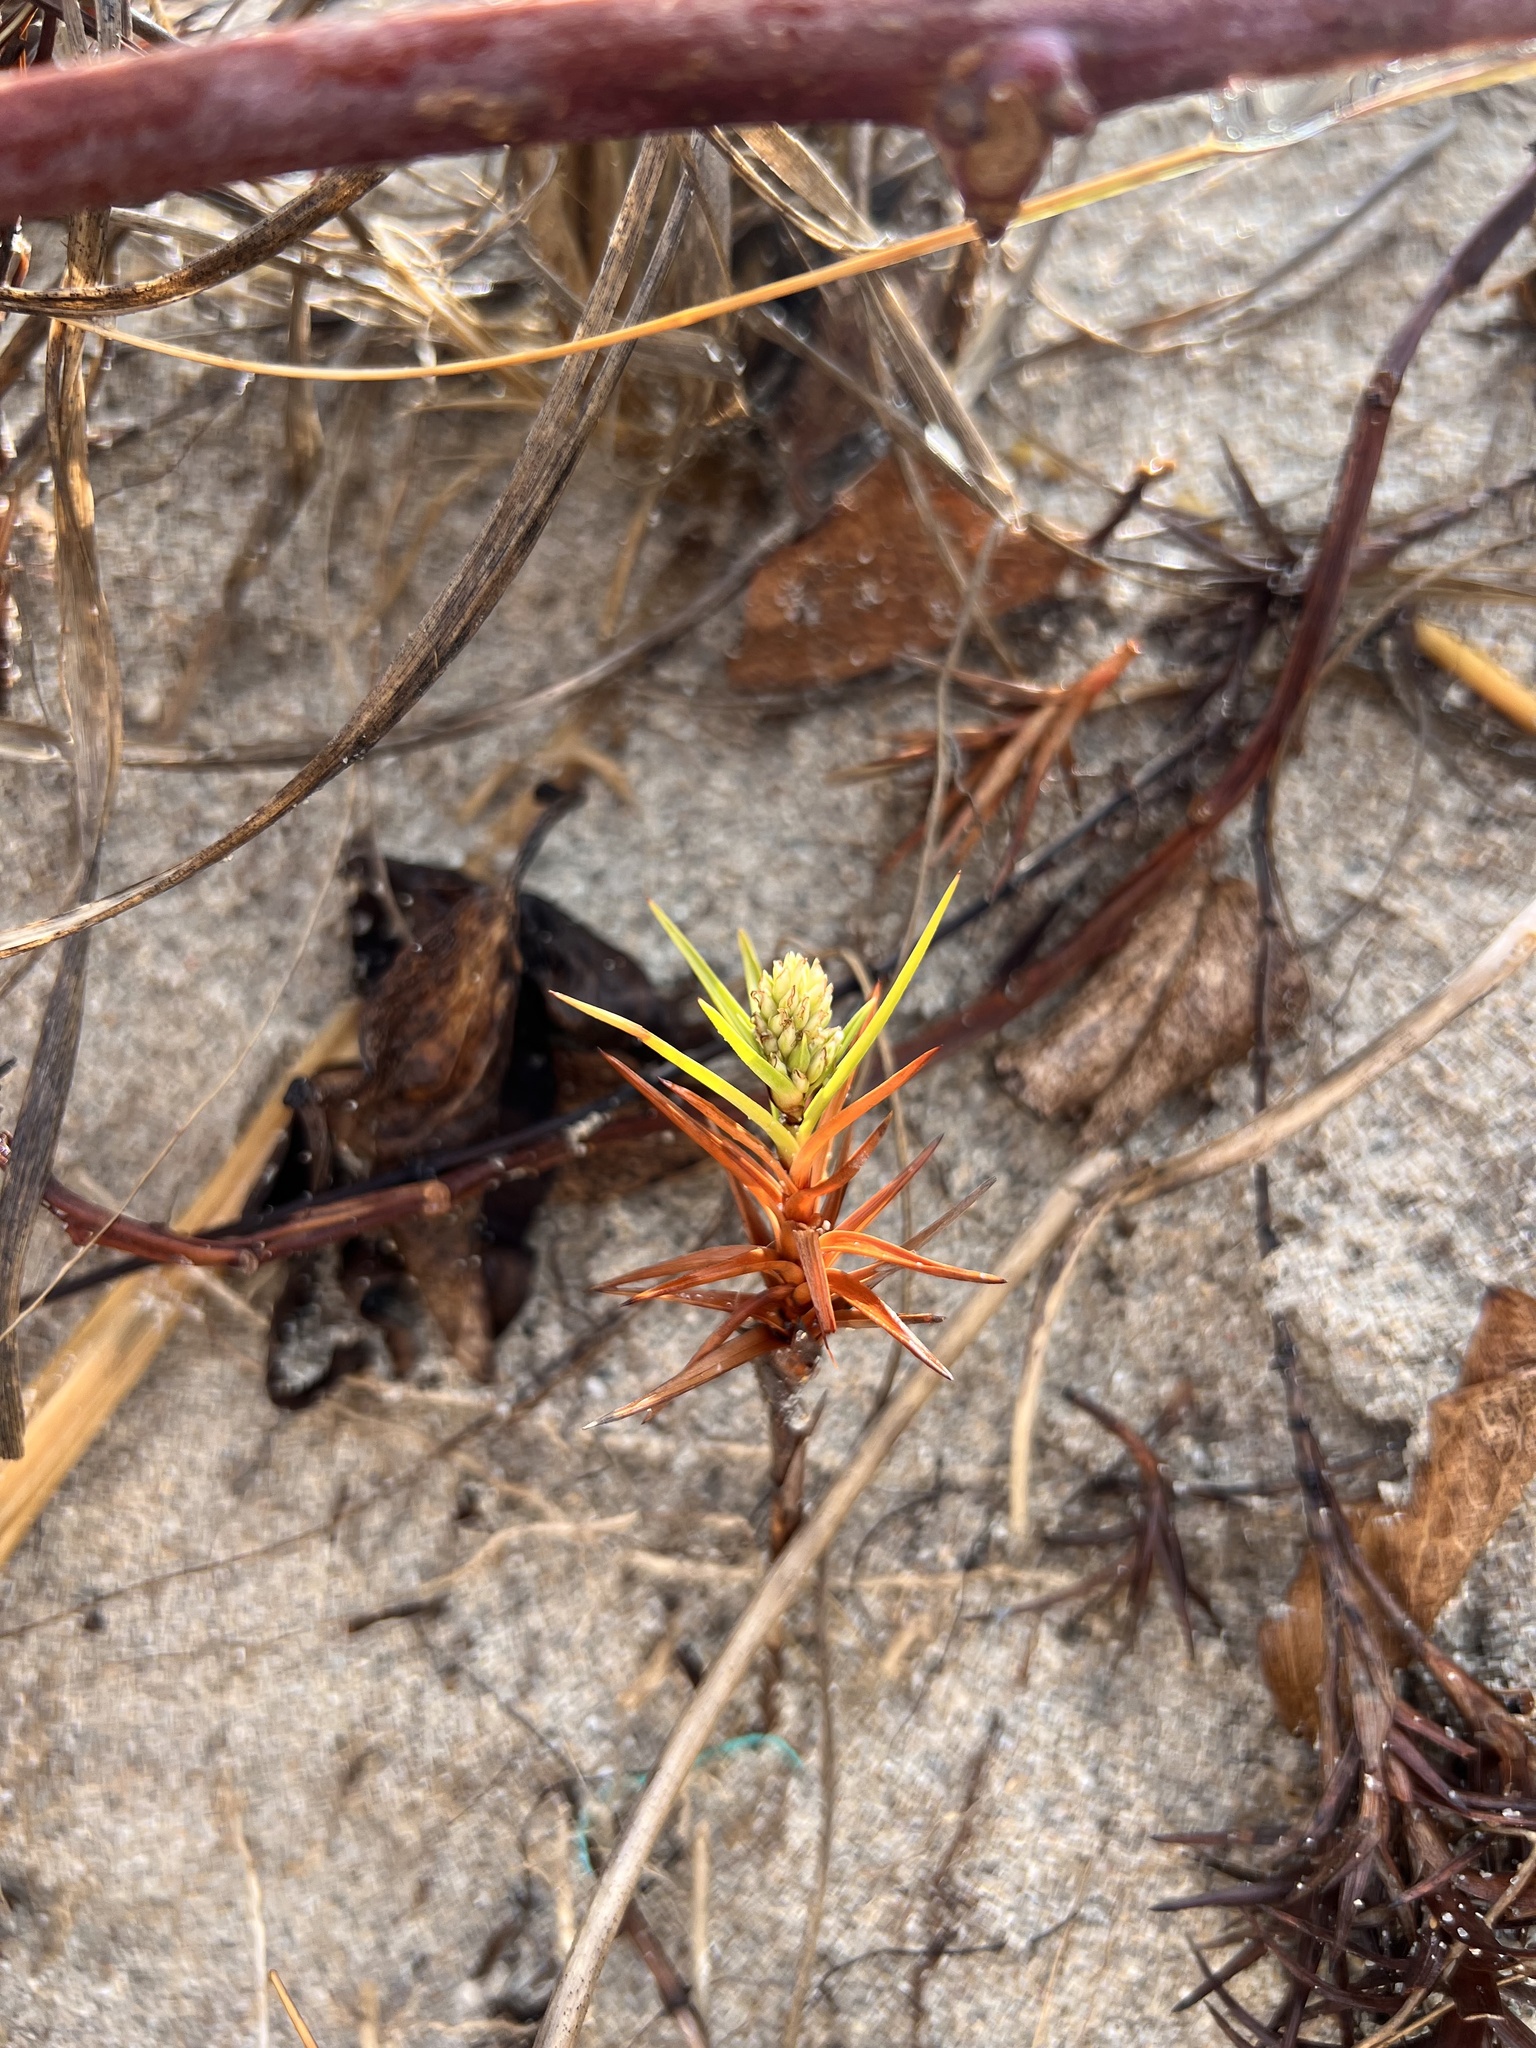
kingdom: Plantae
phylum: Tracheophyta
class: Liliopsida
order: Poales
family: Cyperaceae
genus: Cyperus
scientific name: Cyperus pedunculatus
